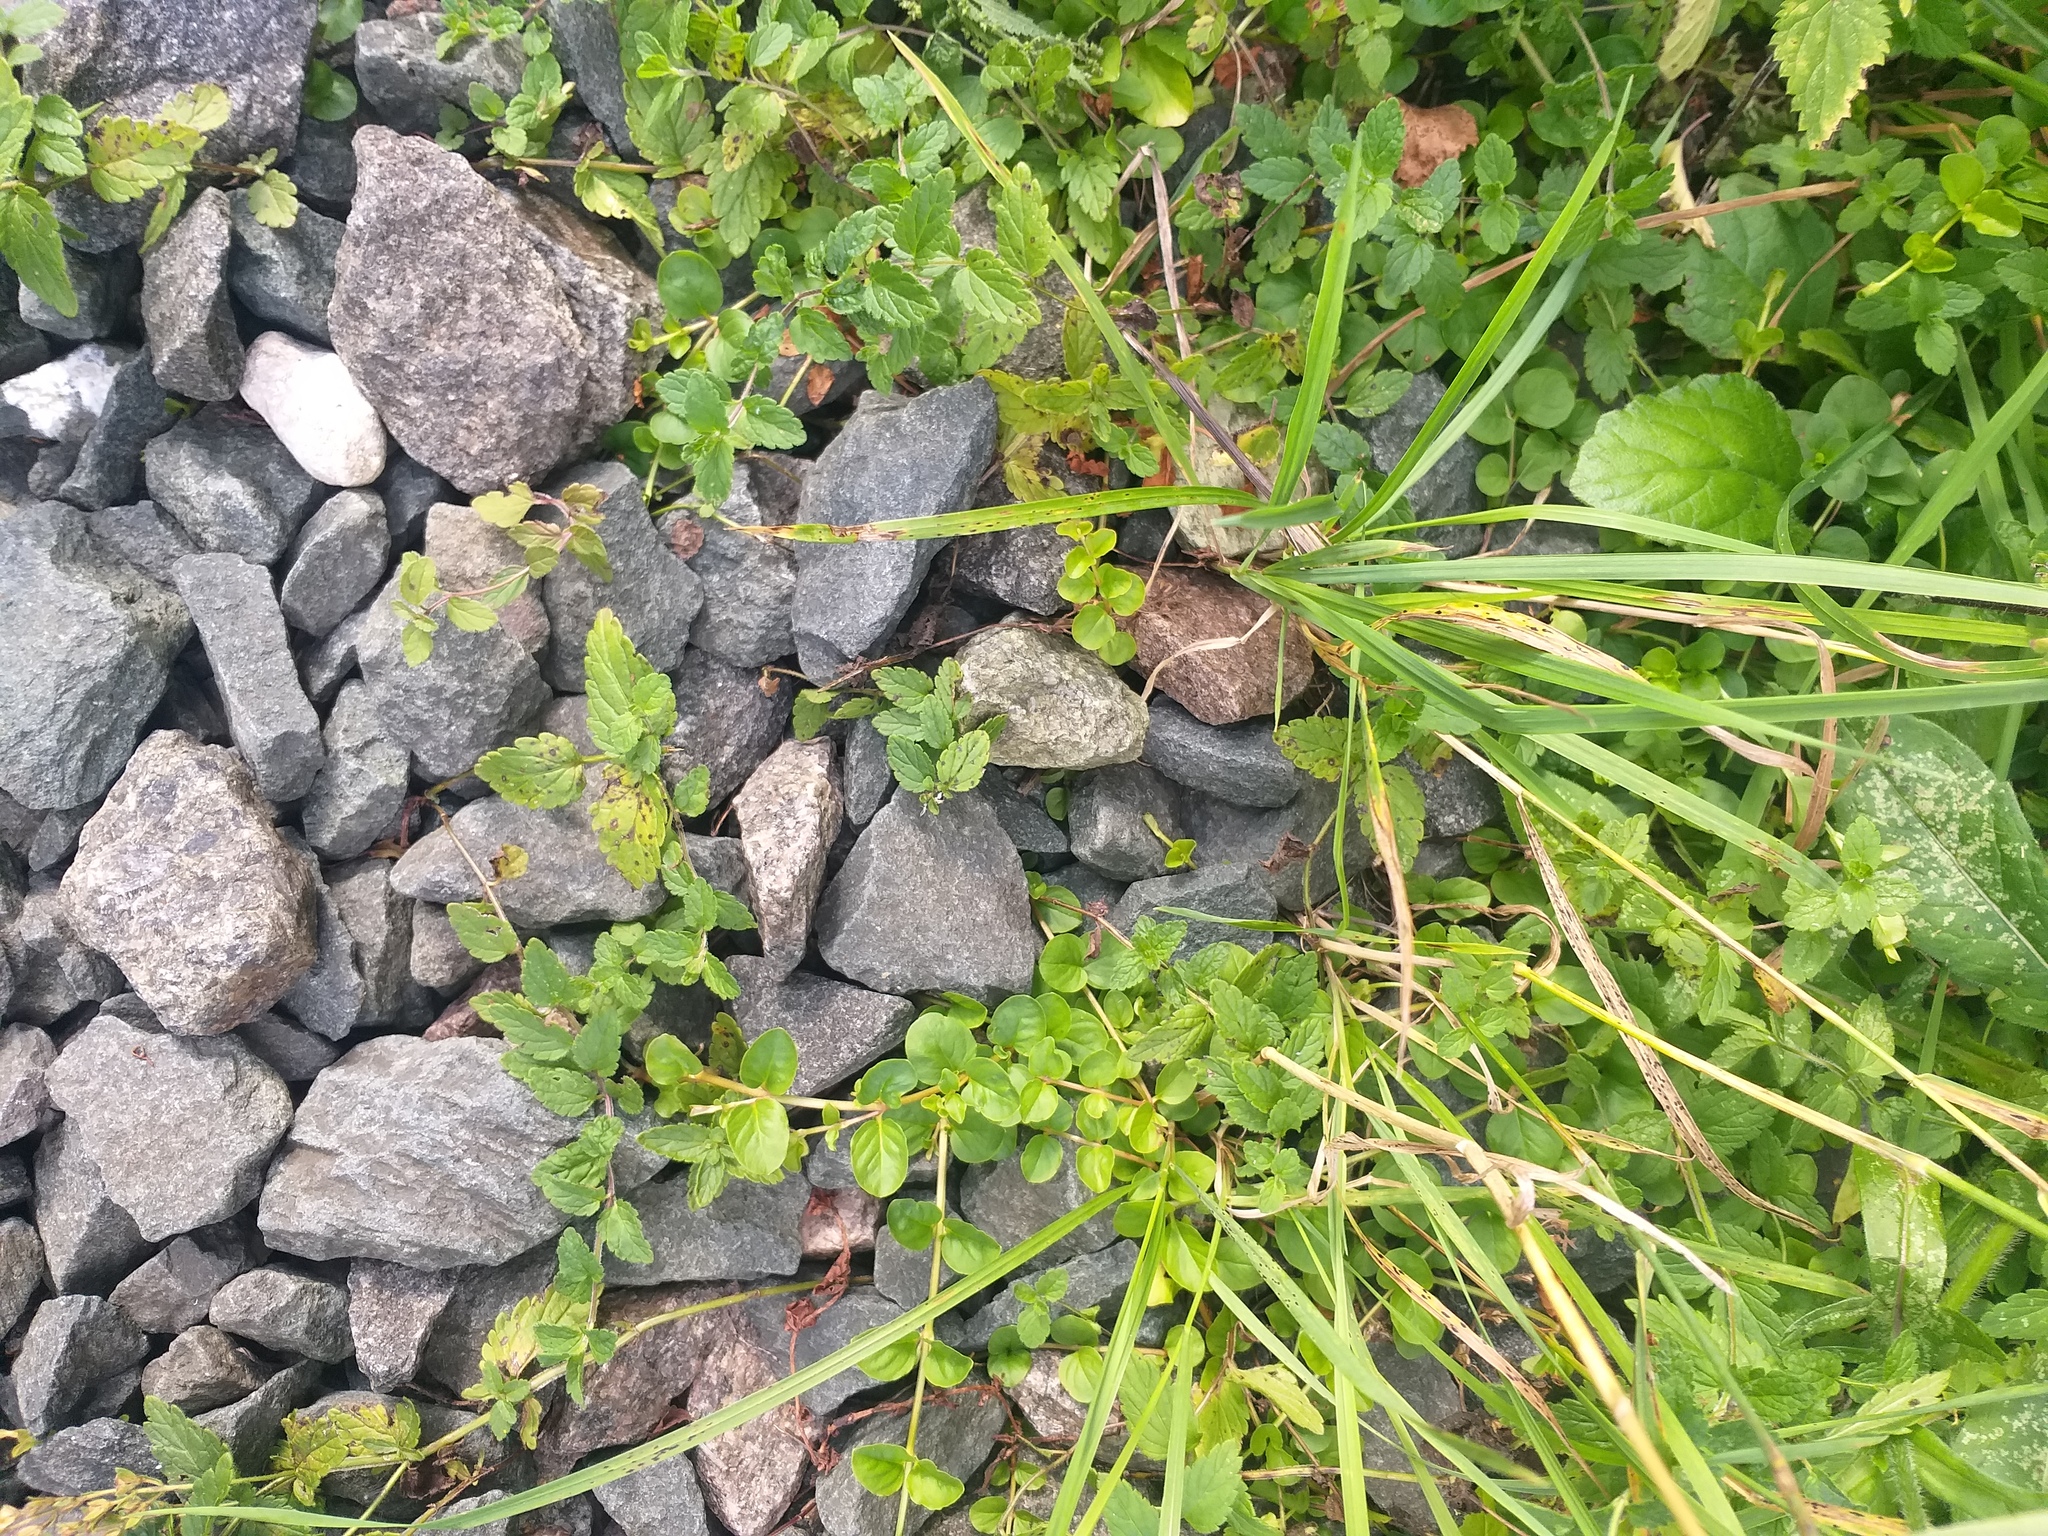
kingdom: Plantae
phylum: Tracheophyta
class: Magnoliopsida
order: Lamiales
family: Plantaginaceae
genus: Veronica
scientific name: Veronica chamaedrys
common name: Germander speedwell
